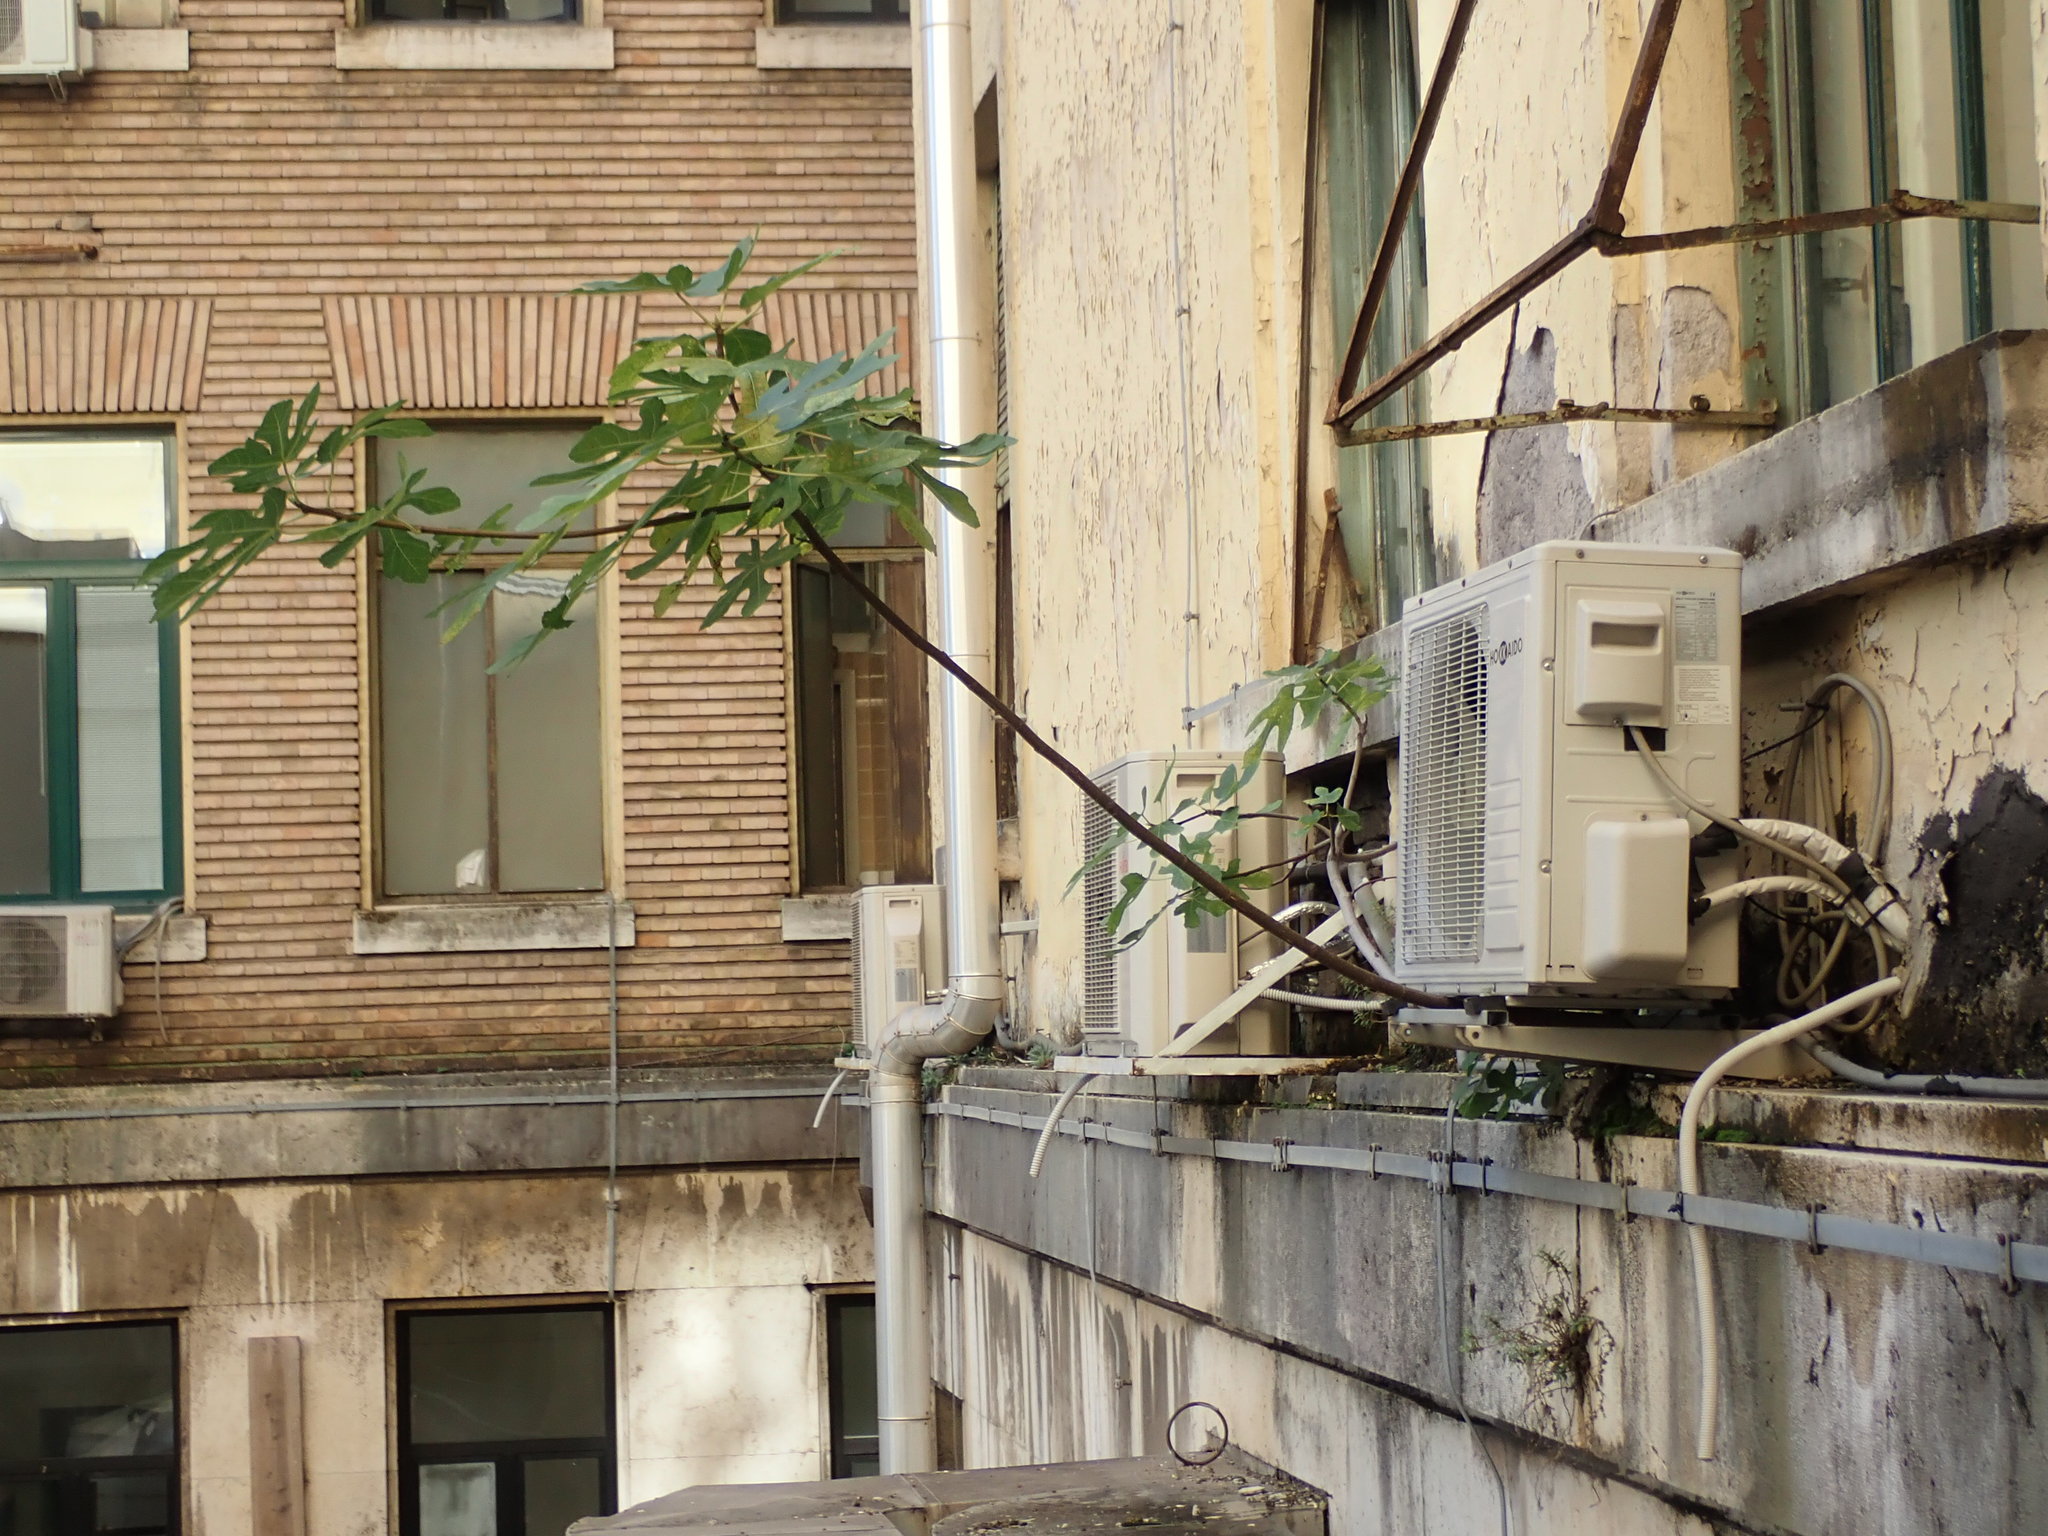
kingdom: Plantae
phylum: Tracheophyta
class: Magnoliopsida
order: Rosales
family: Moraceae
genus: Ficus
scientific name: Ficus carica
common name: Fig
